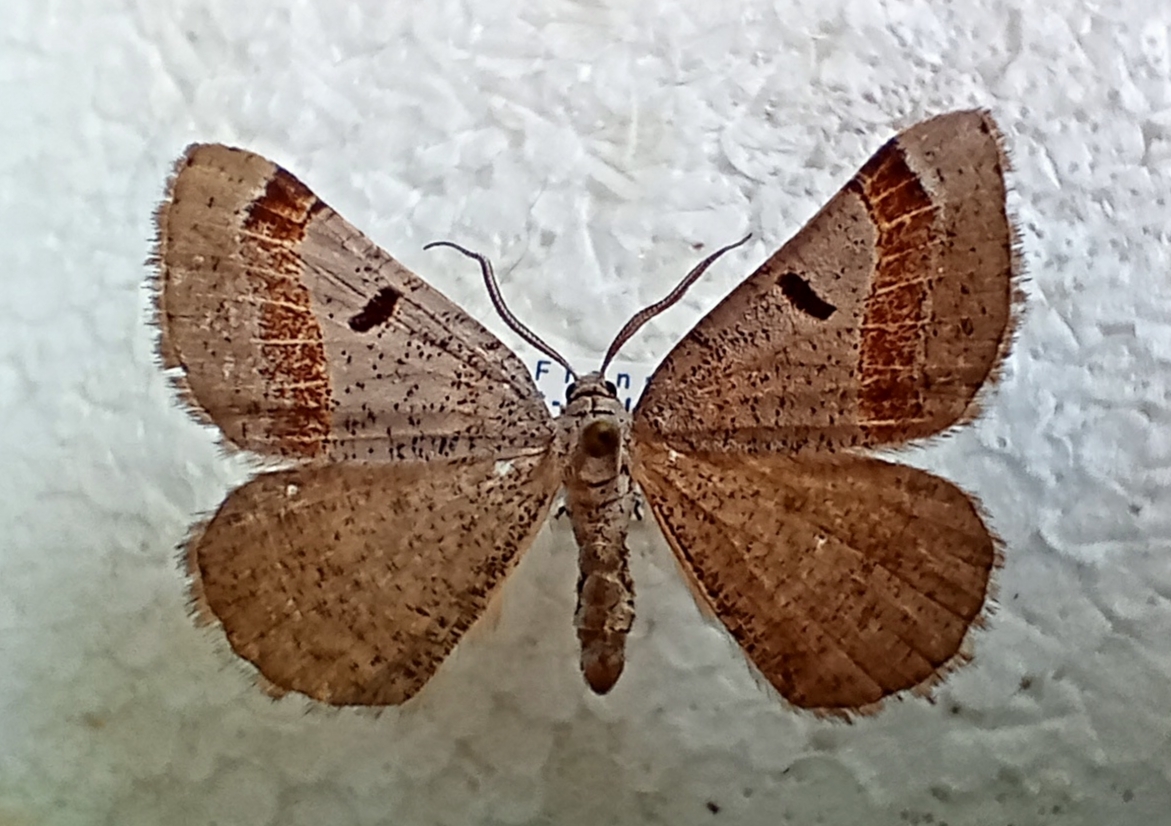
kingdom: Animalia
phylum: Arthropoda
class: Insecta
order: Lepidoptera
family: Geometridae
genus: Itame
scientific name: Itame vincularia
